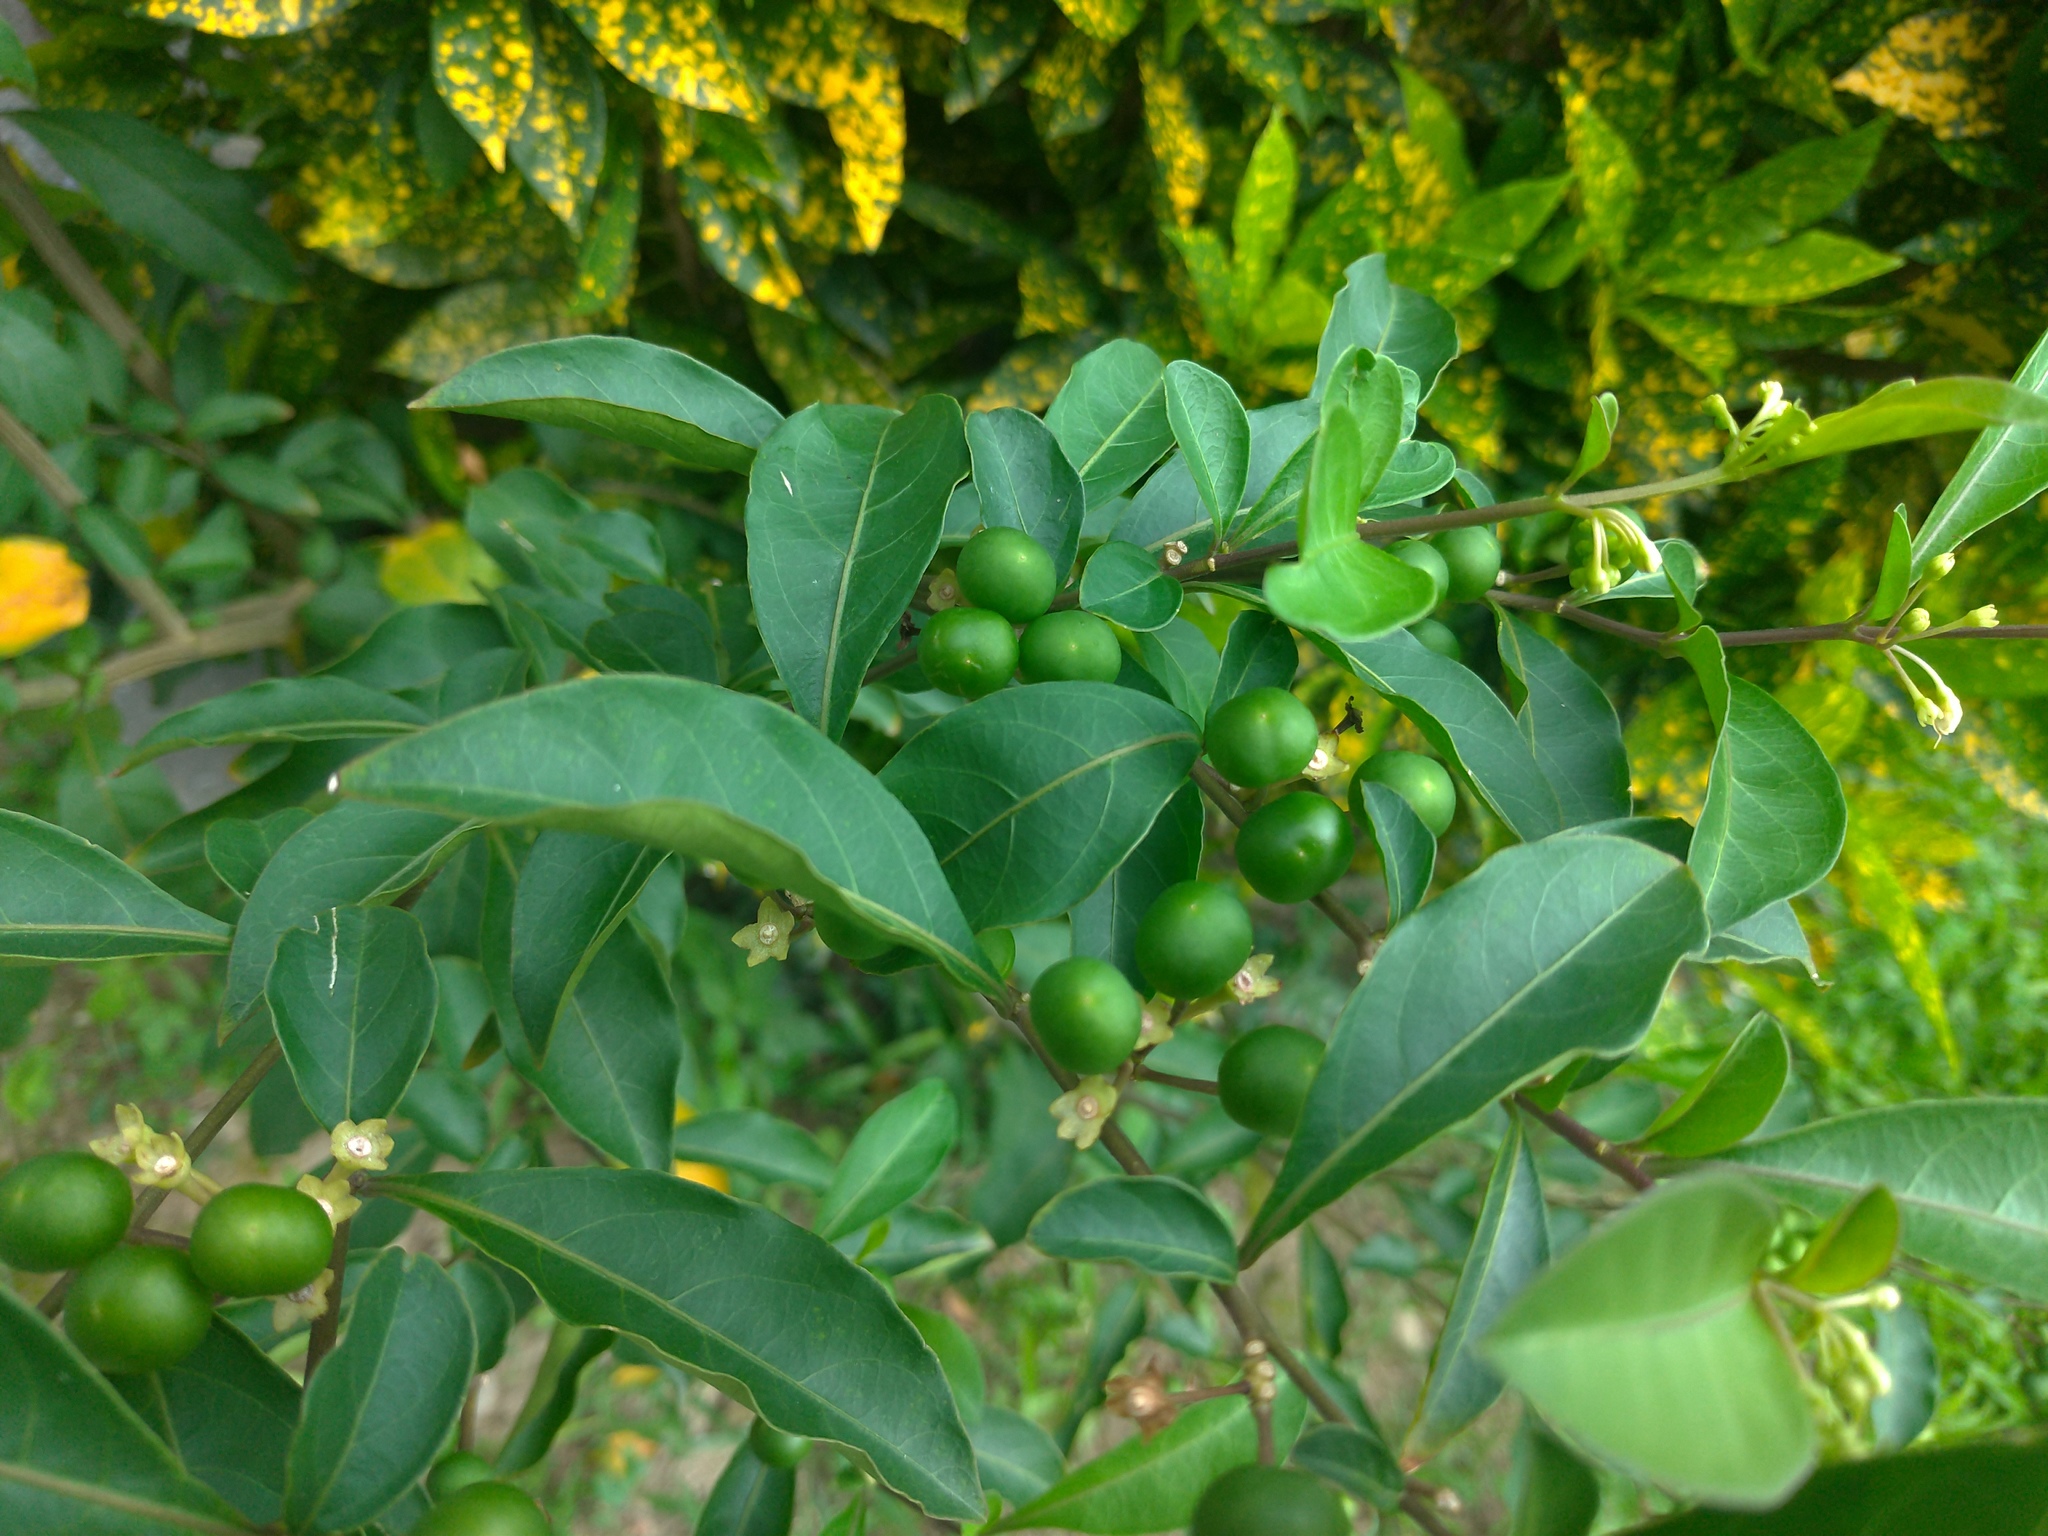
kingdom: Plantae
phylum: Tracheophyta
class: Magnoliopsida
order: Solanales
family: Solanaceae
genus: Solanum
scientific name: Solanum diphyllum
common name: Twoleaf nightshade
